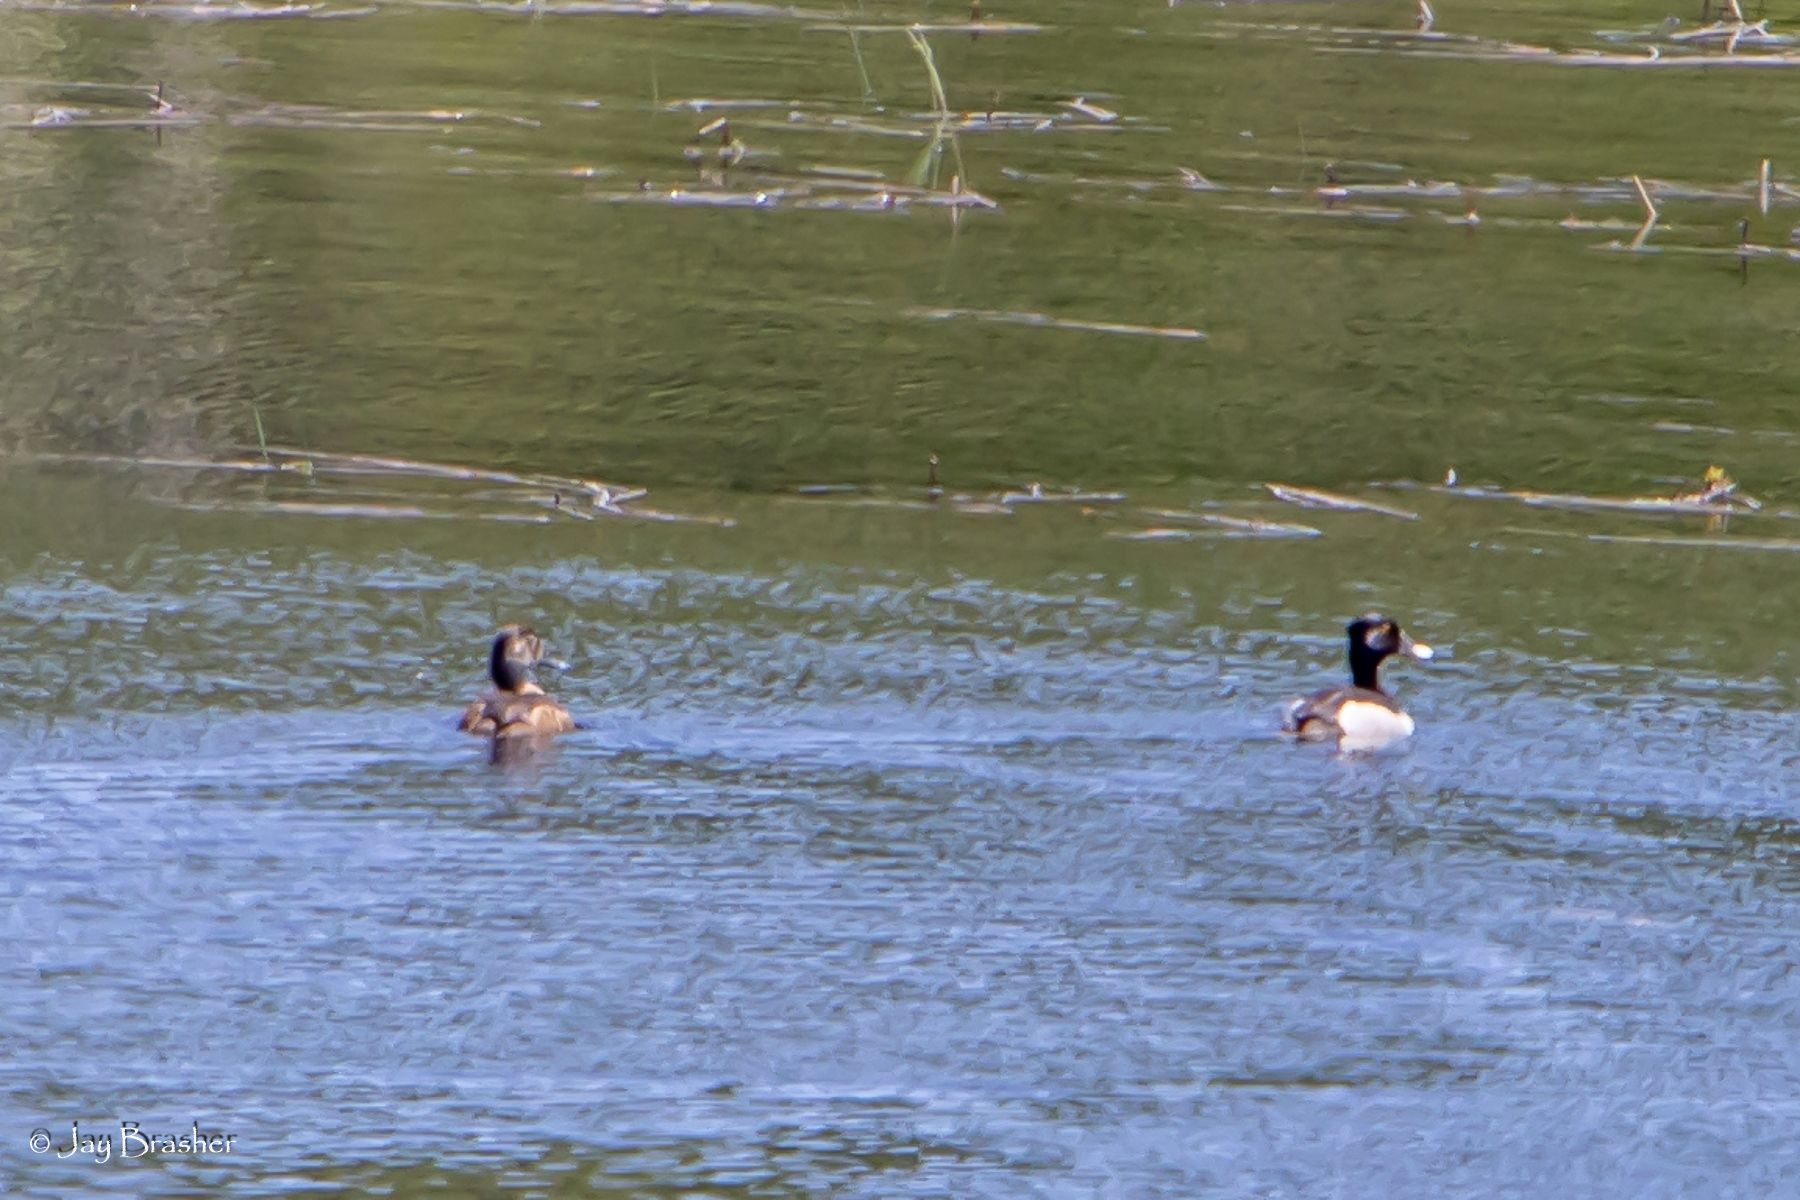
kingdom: Animalia
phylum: Chordata
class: Aves
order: Anseriformes
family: Anatidae
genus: Aythya
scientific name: Aythya collaris
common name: Ring-necked duck
